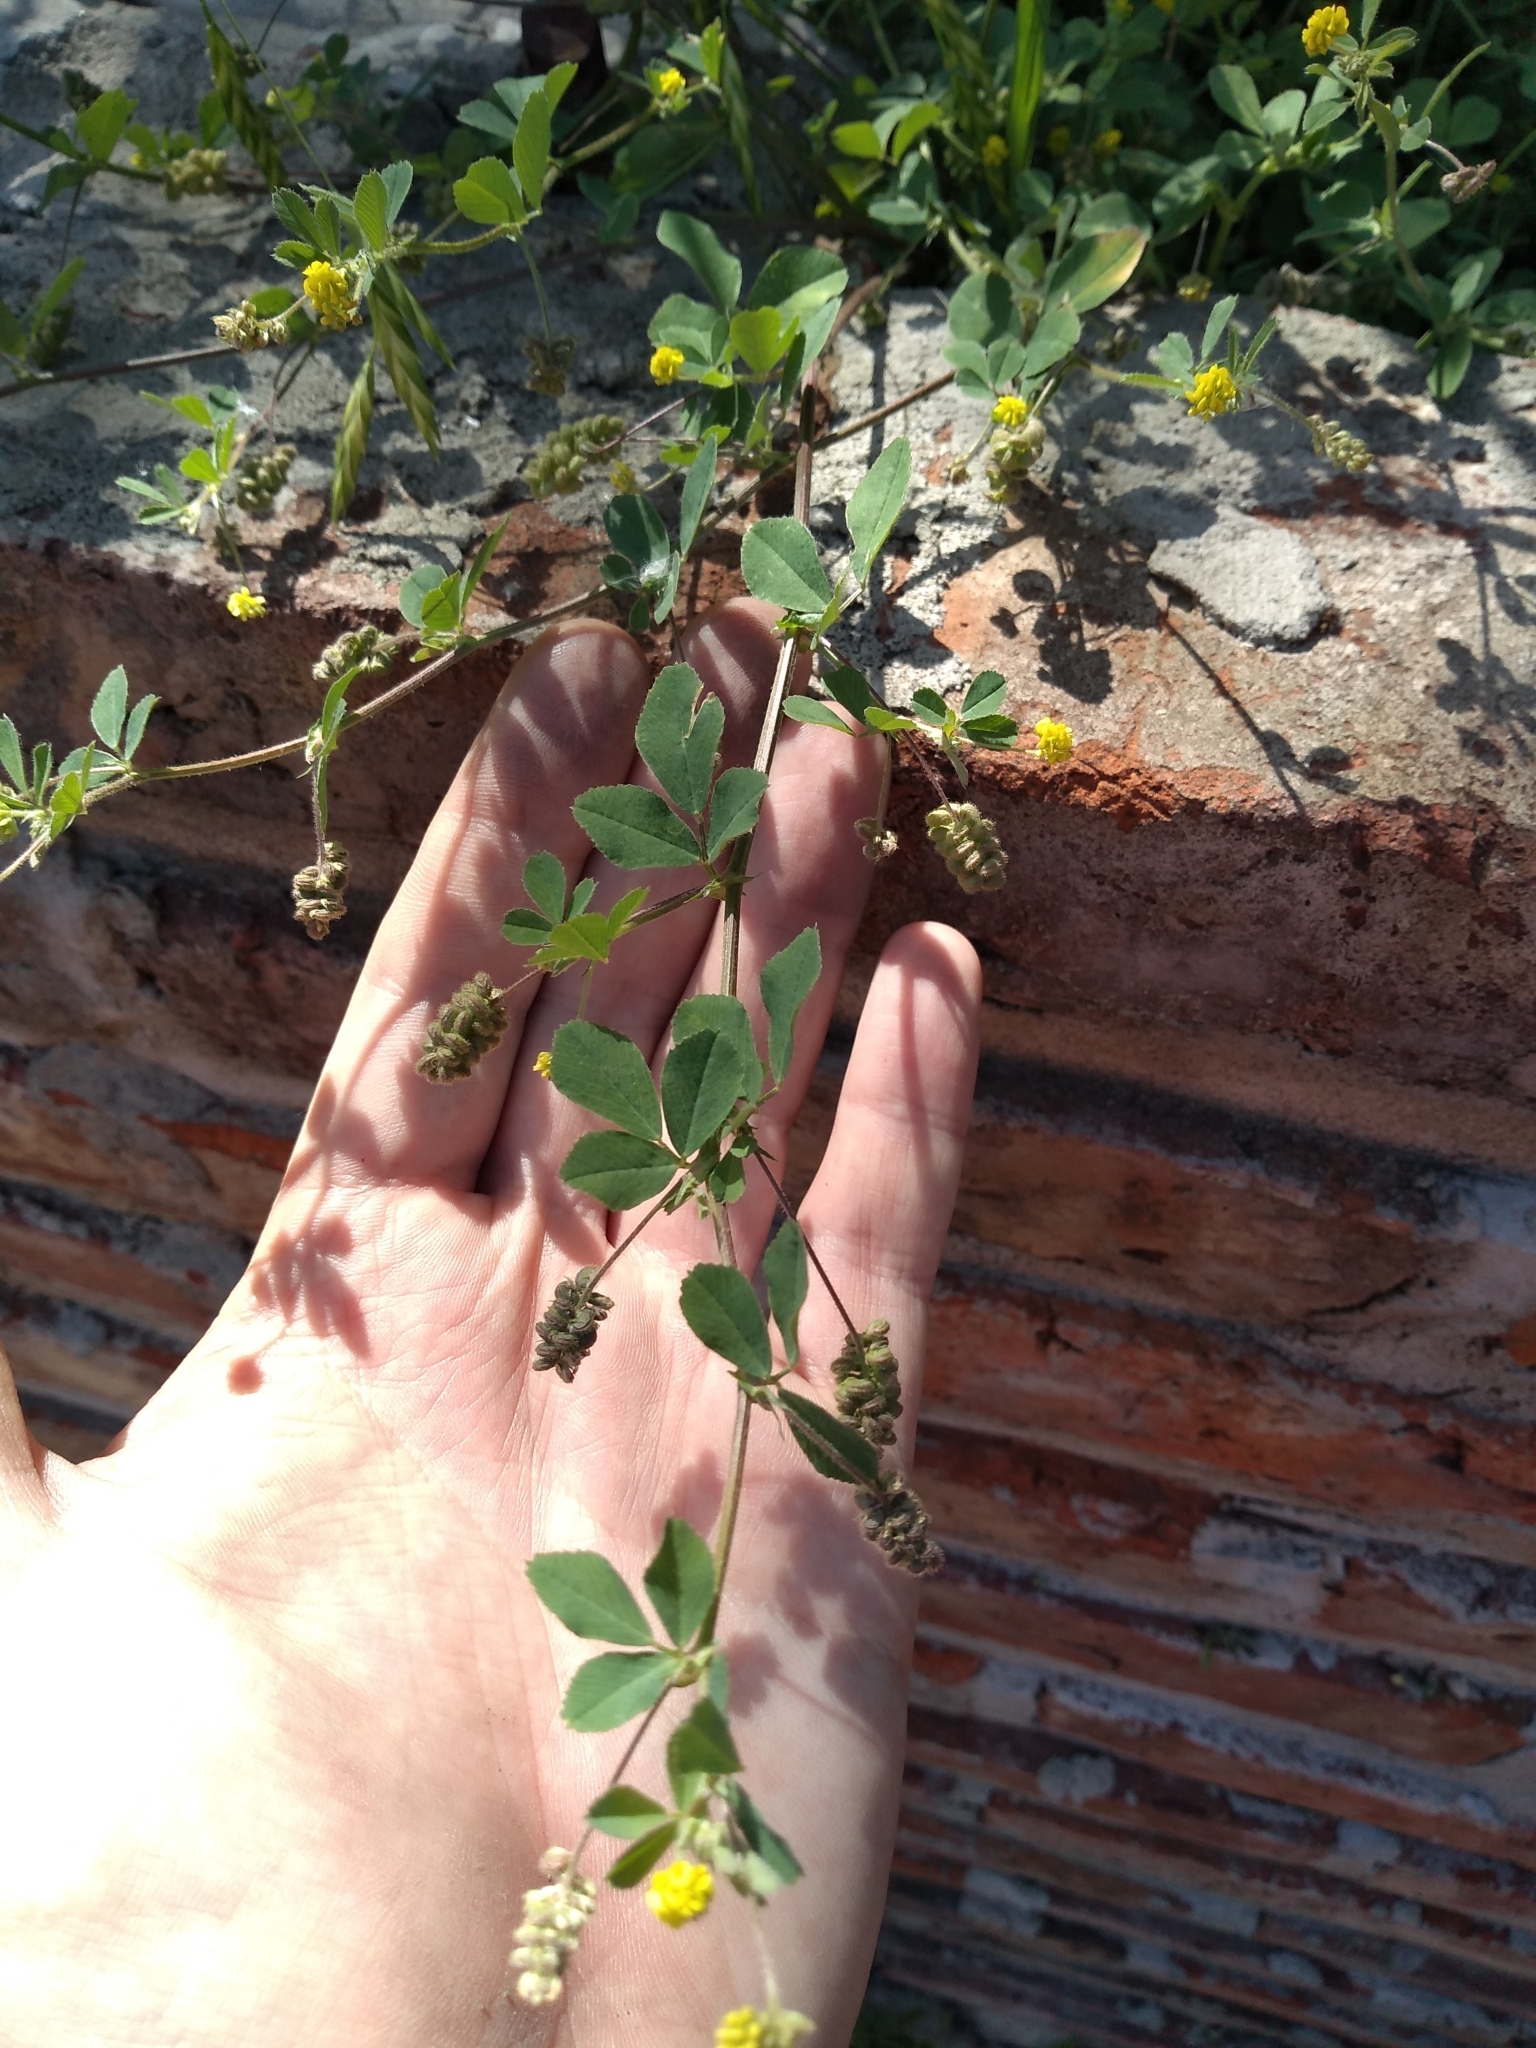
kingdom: Plantae
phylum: Tracheophyta
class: Magnoliopsida
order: Fabales
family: Fabaceae
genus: Medicago
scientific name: Medicago lupulina
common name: Black medick
